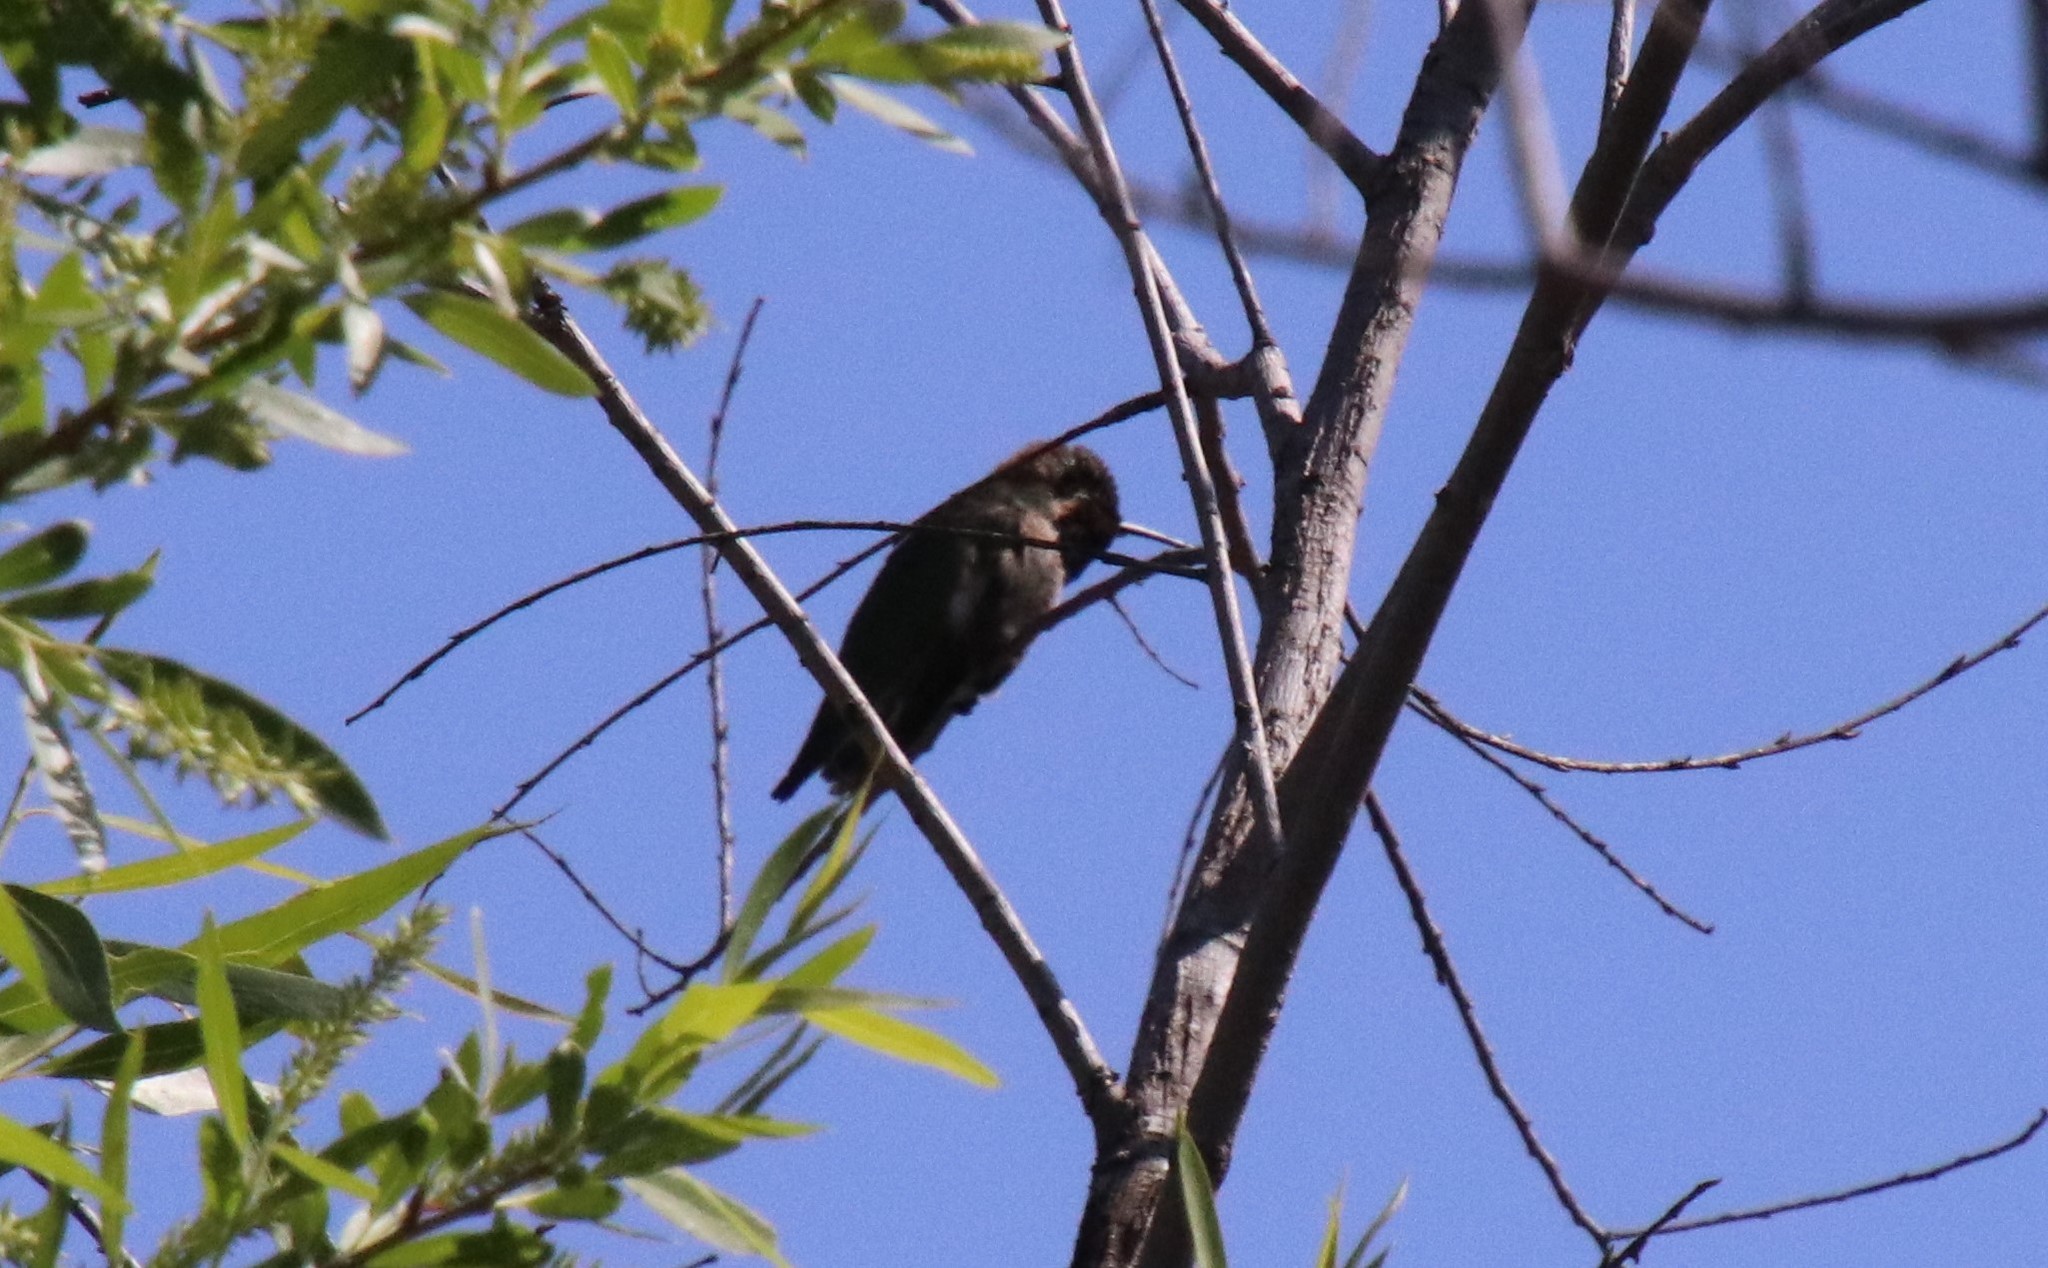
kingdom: Animalia
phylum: Chordata
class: Aves
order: Apodiformes
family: Trochilidae
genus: Calypte
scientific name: Calypte anna
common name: Anna's hummingbird
